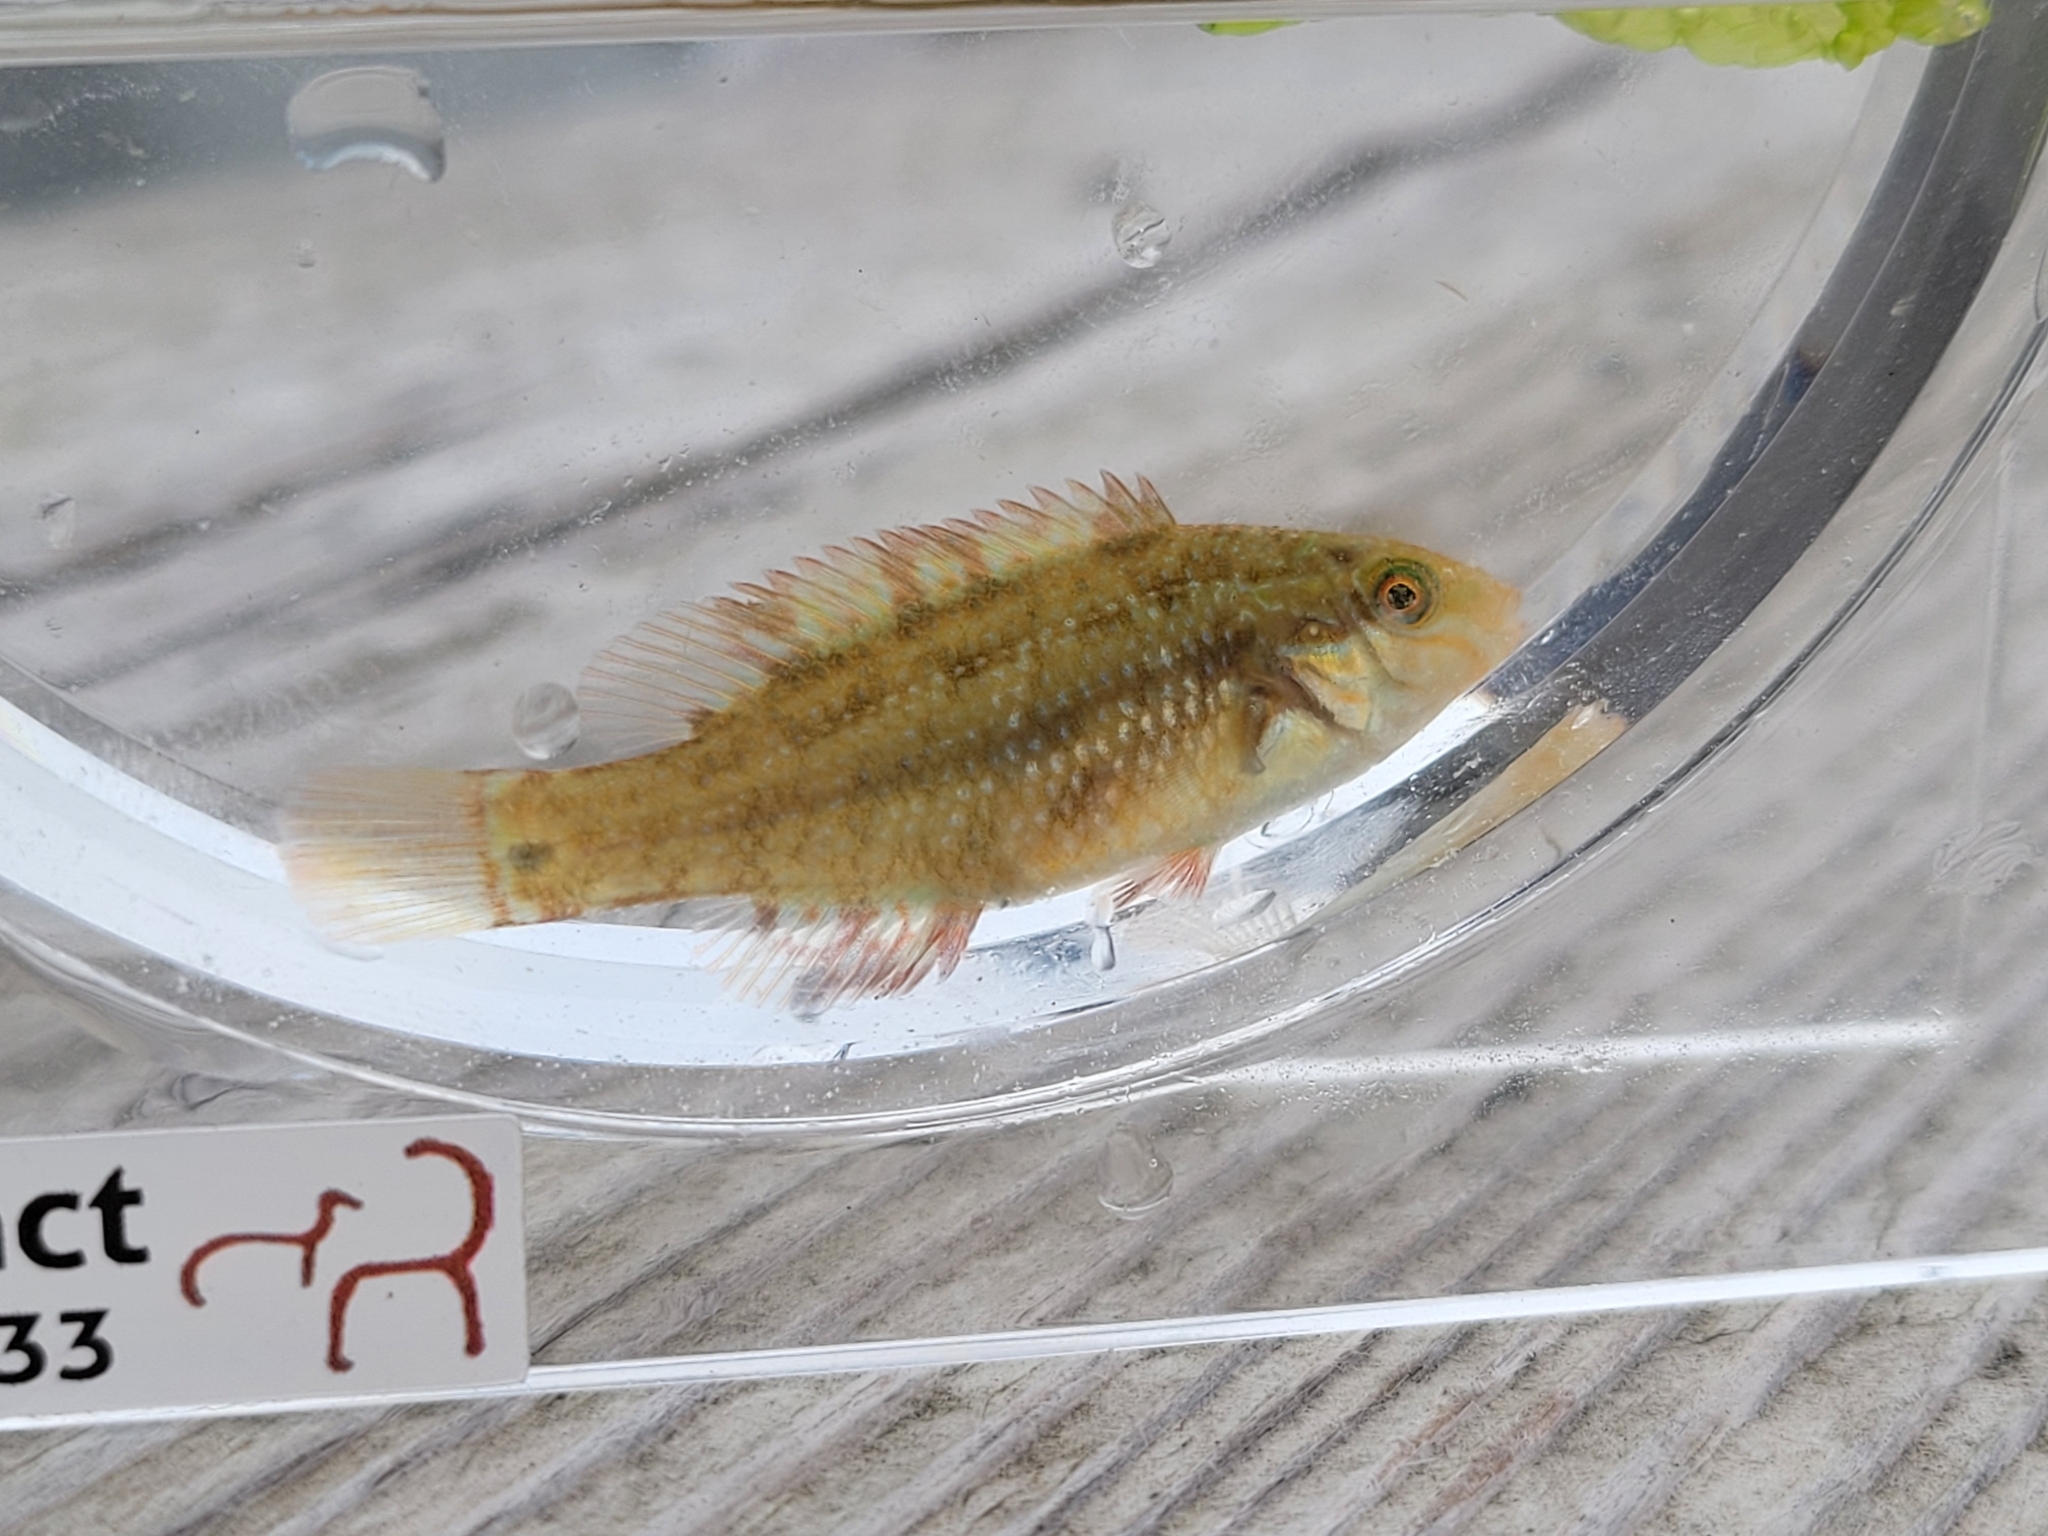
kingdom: Animalia
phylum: Chordata
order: Perciformes
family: Labridae
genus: Symphodus
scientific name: Symphodus melops
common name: Corkwing
